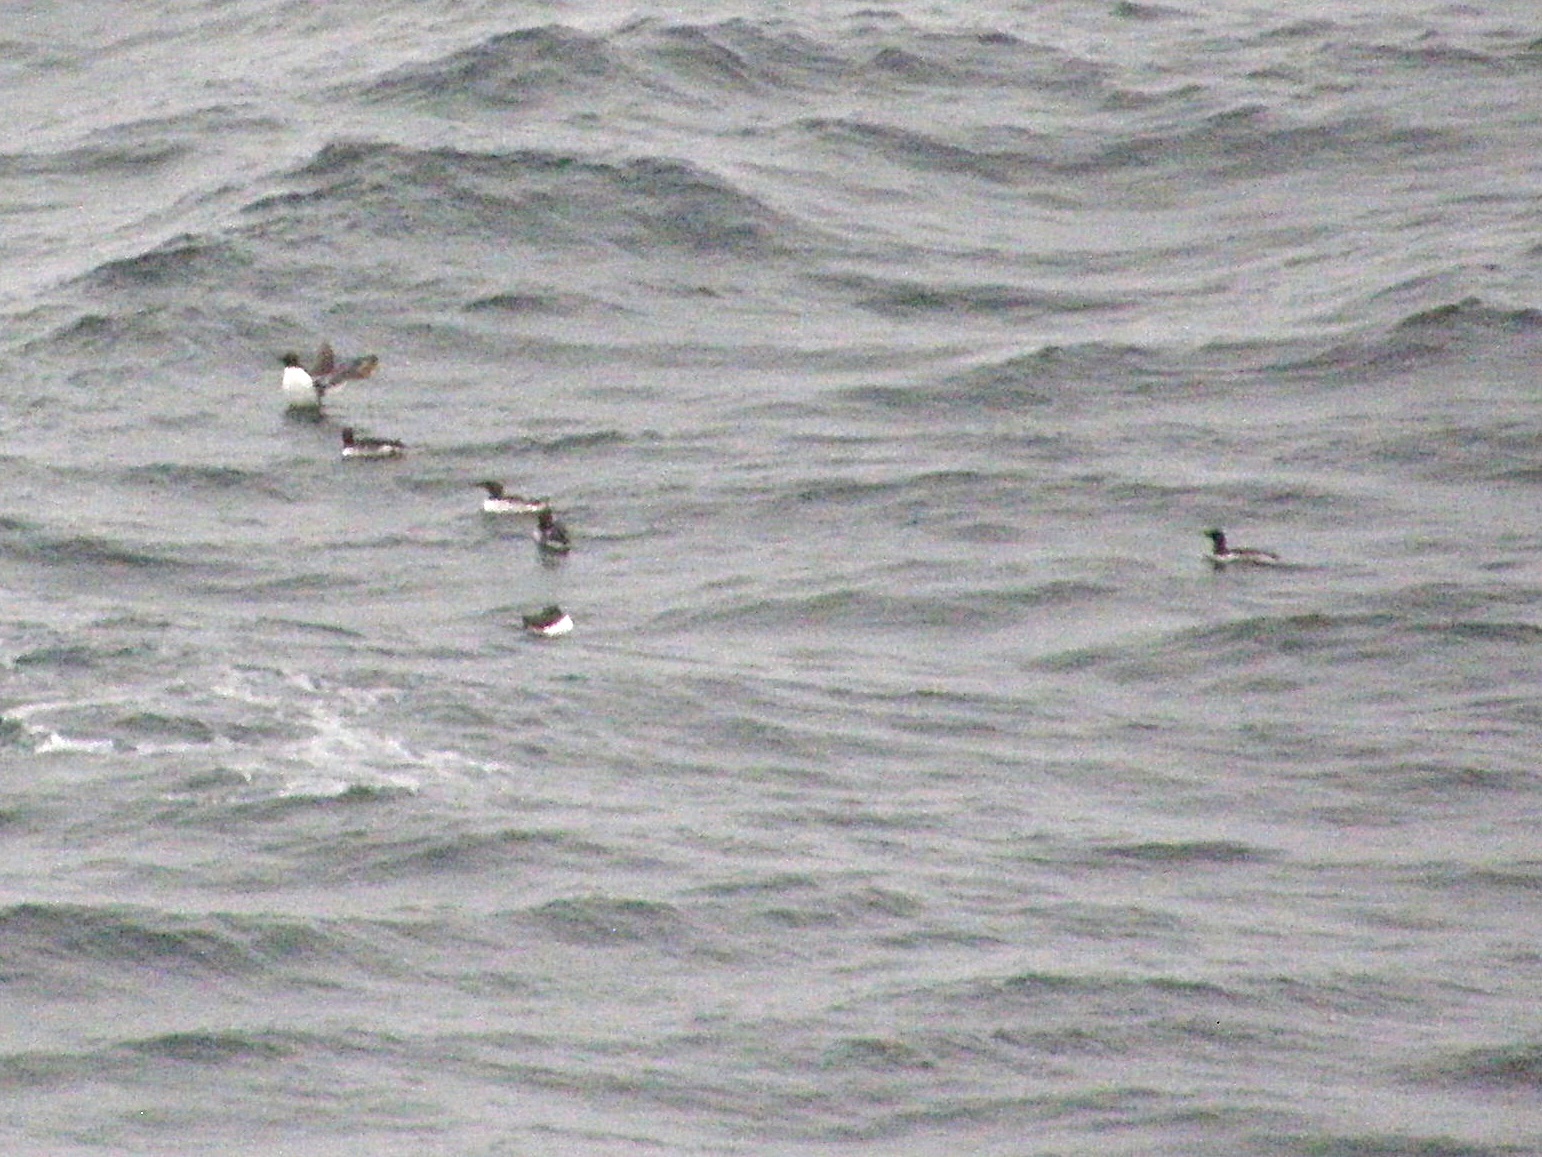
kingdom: Animalia
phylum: Chordata
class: Aves
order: Charadriiformes
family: Alcidae
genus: Uria
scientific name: Uria aalge
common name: Common murre
